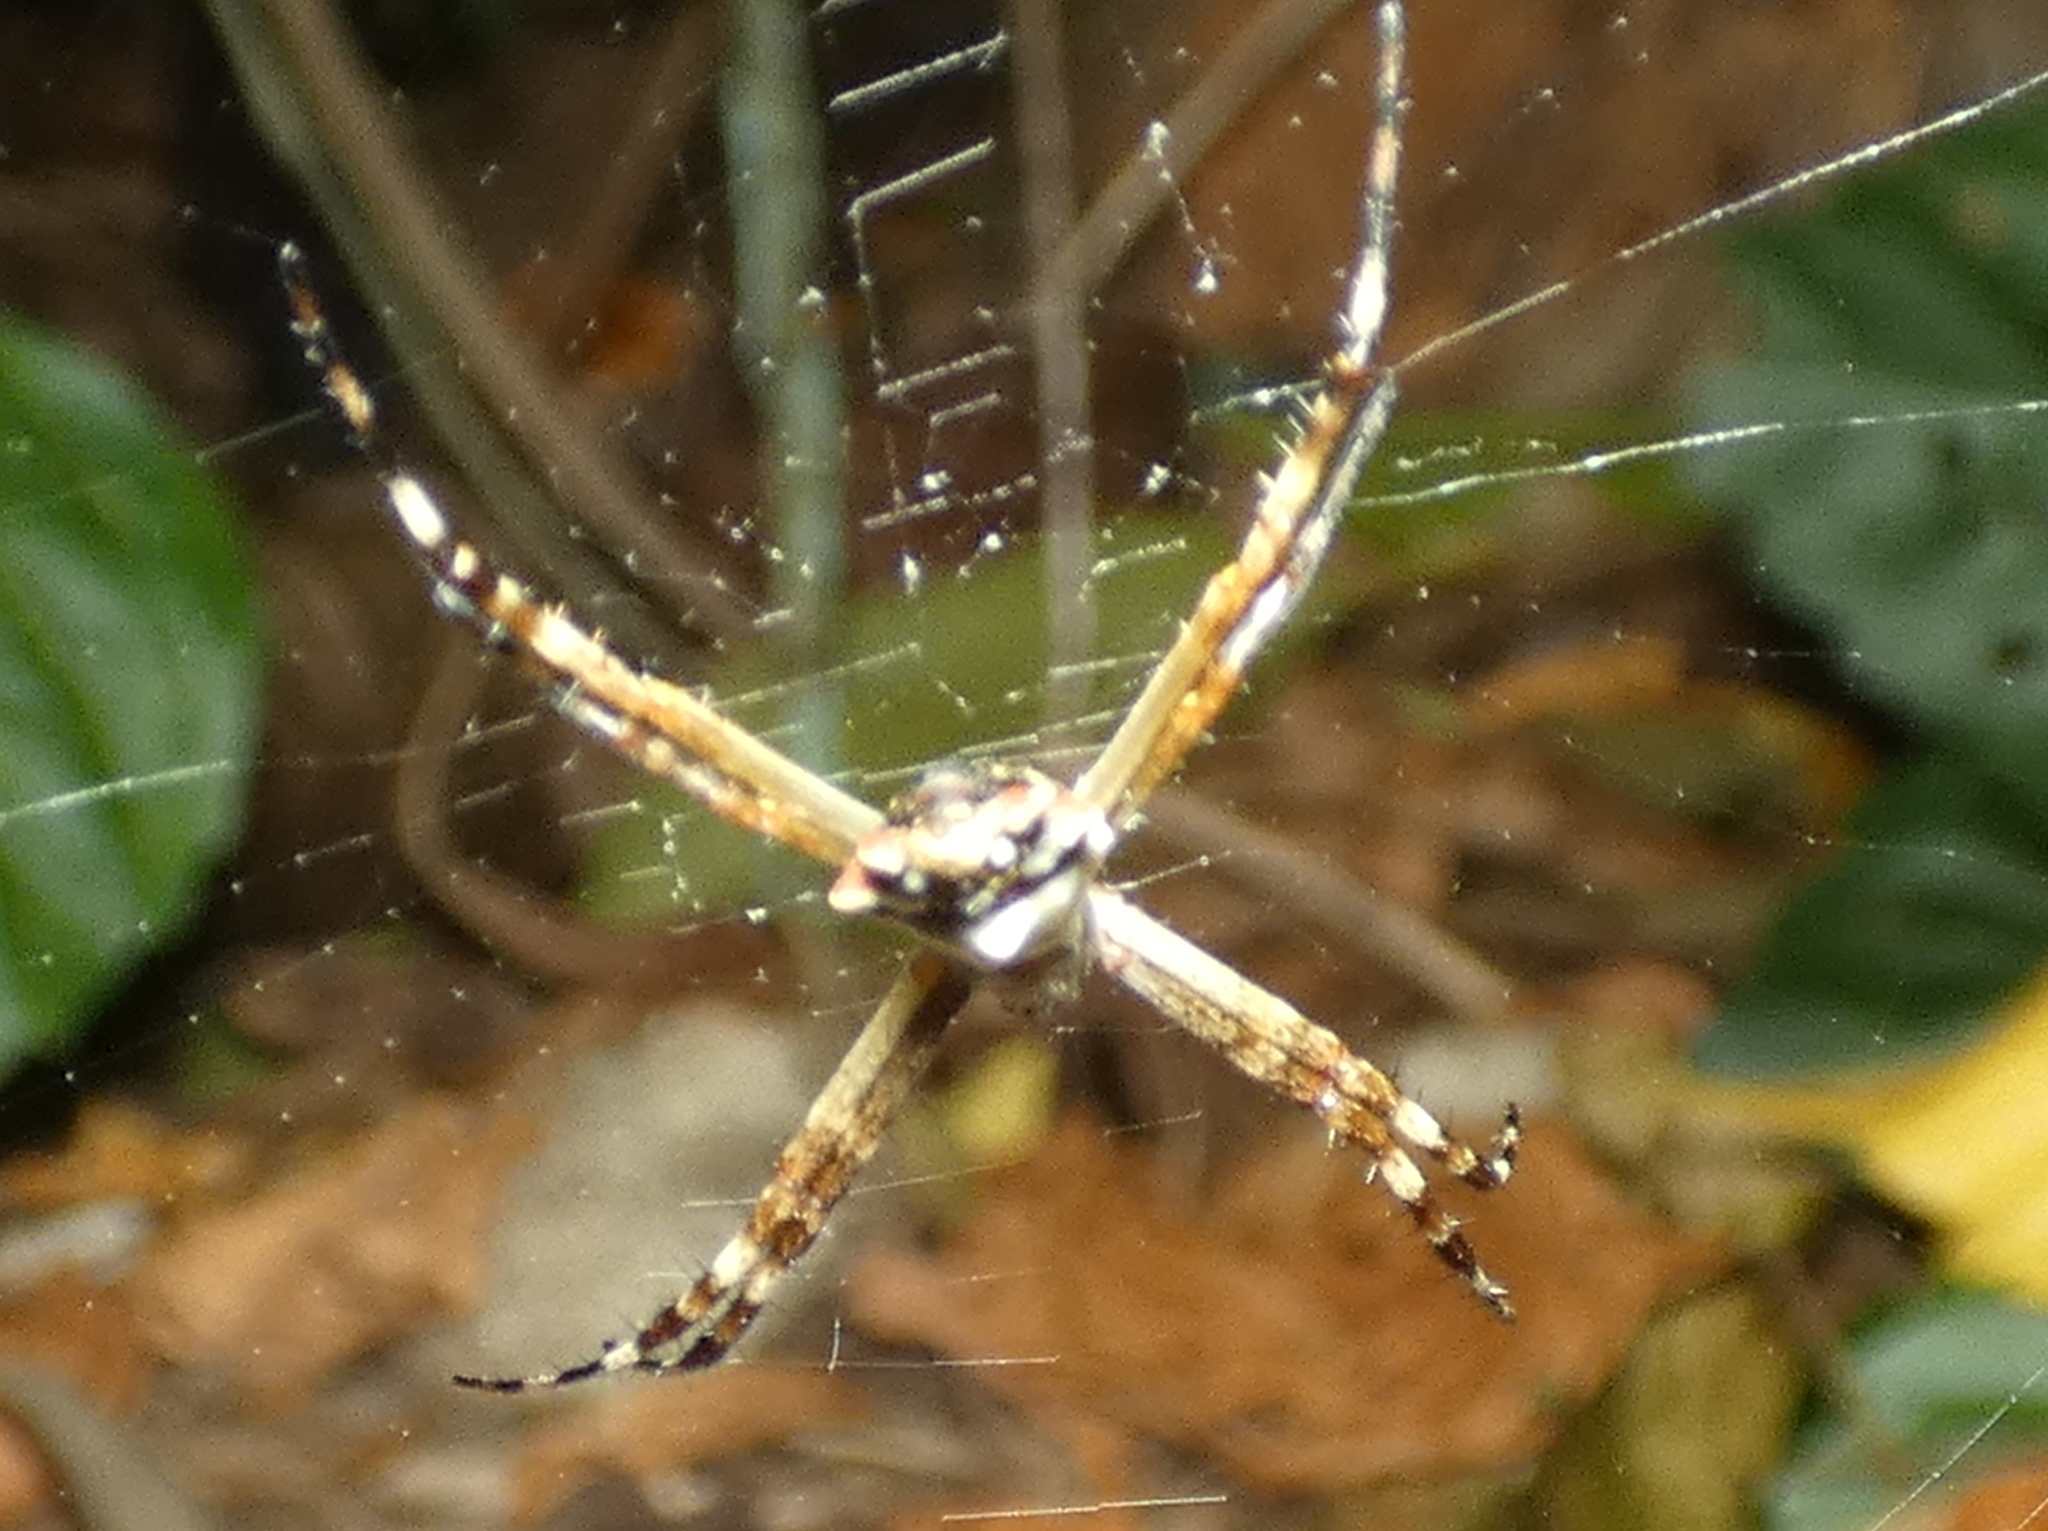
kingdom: Animalia
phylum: Arthropoda
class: Arachnida
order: Araneae
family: Araneidae
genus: Argiope
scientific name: Argiope argentata
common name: Orb weavers
